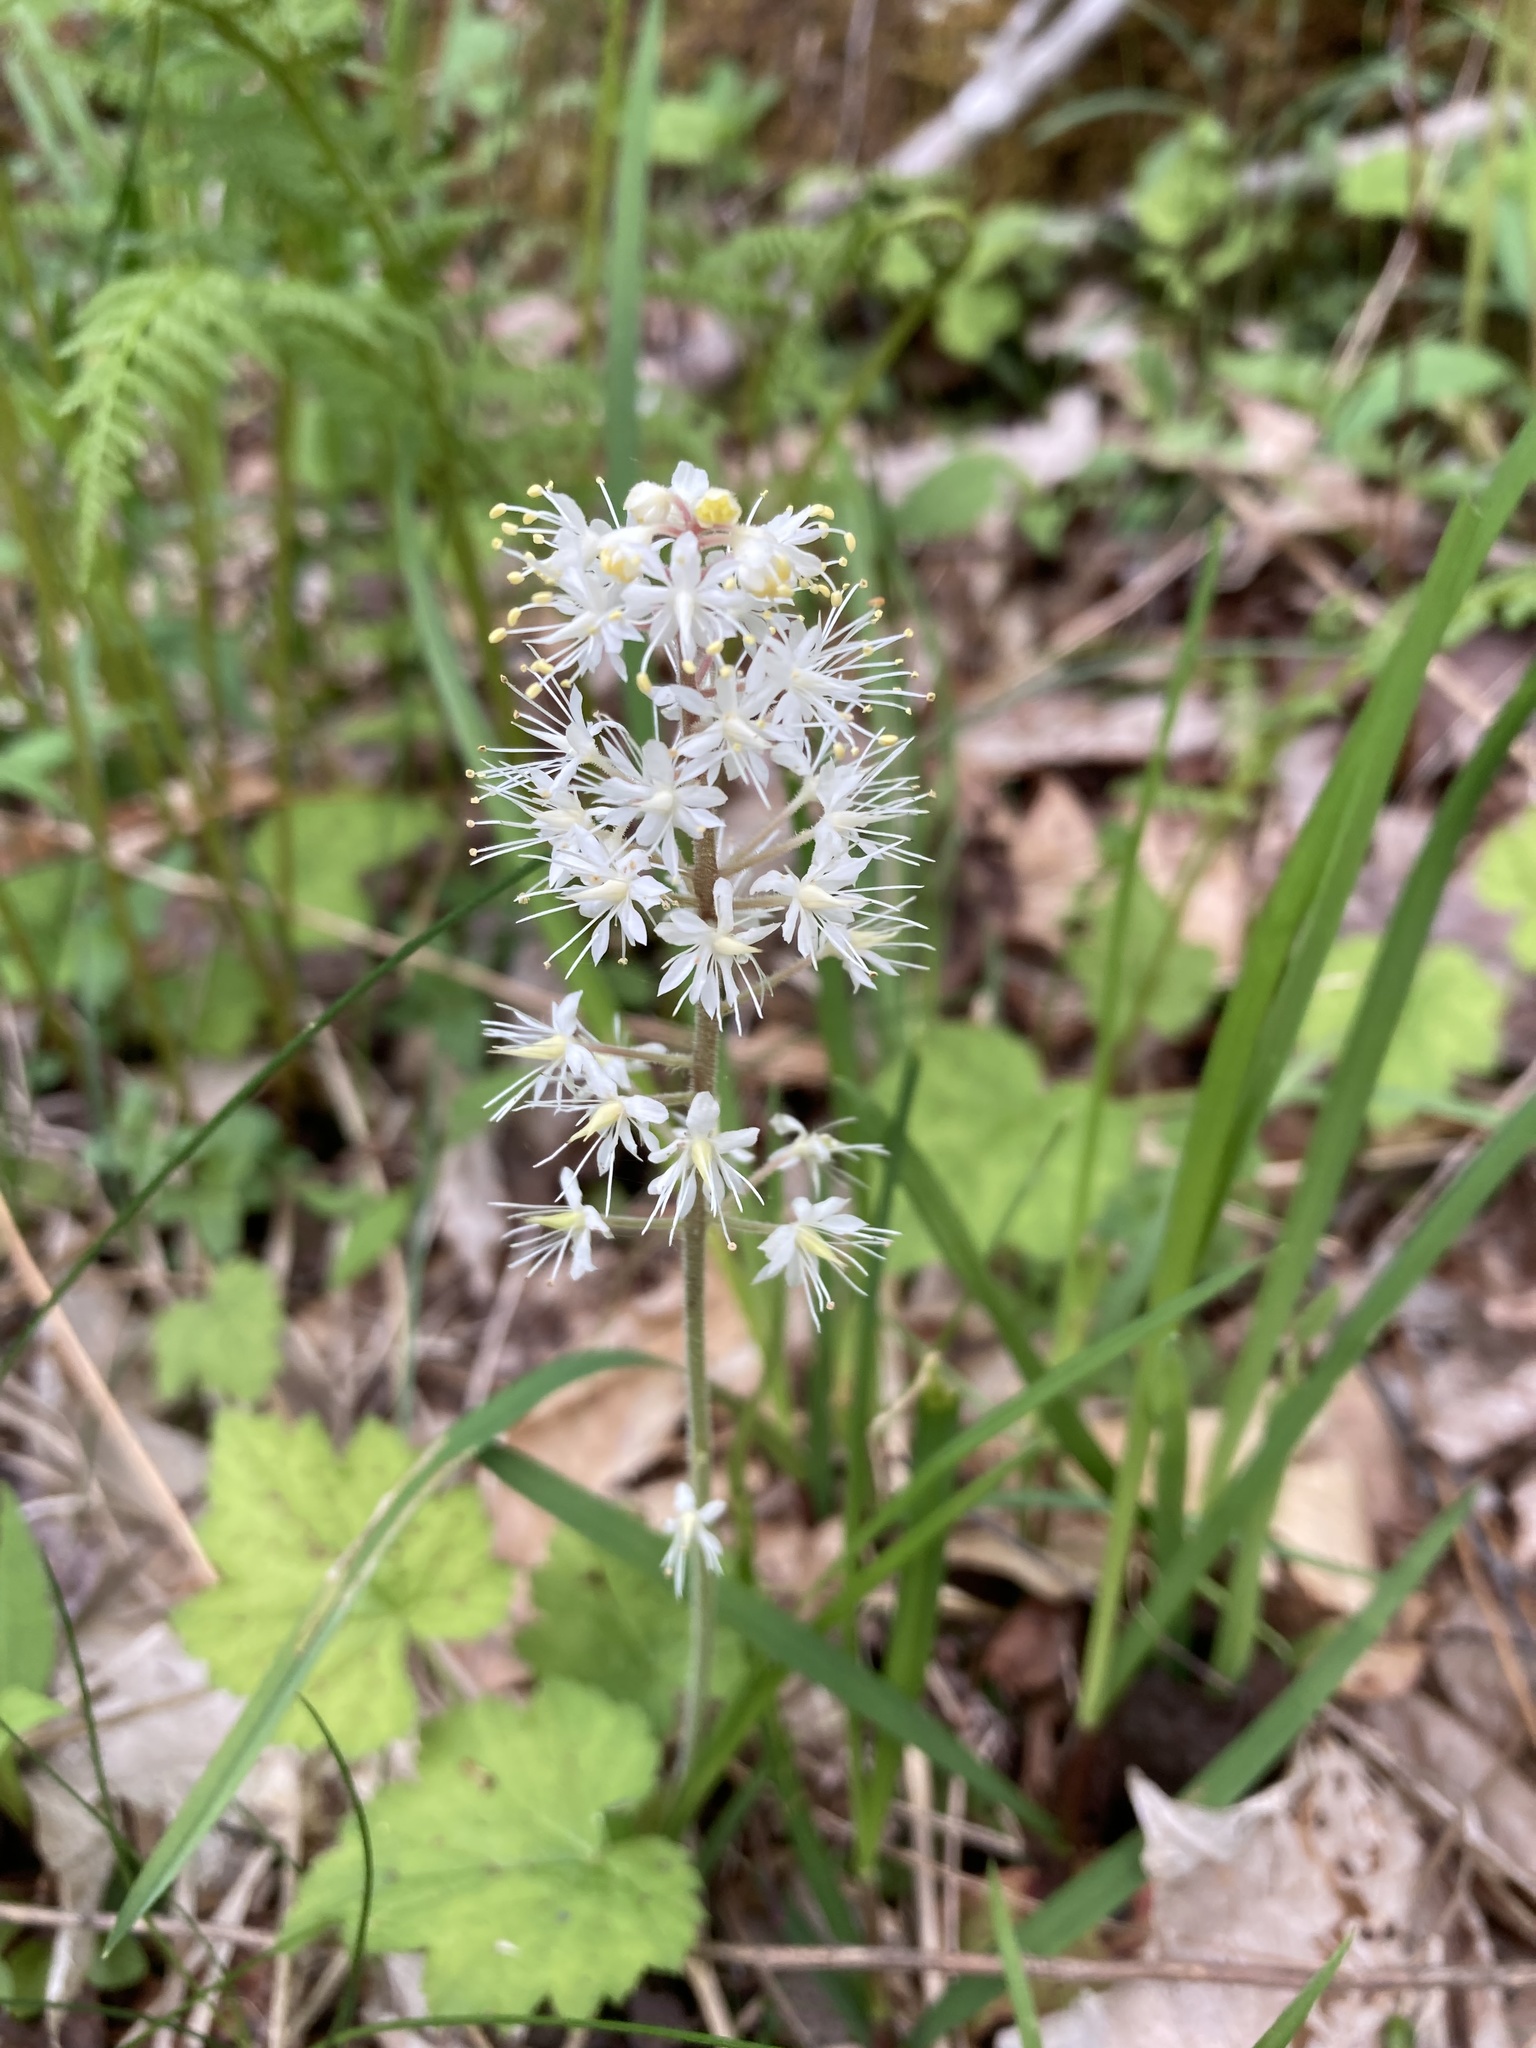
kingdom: Plantae
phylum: Tracheophyta
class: Magnoliopsida
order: Saxifragales
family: Saxifragaceae
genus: Tiarella
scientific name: Tiarella stolonifera
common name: Stoloniferous foamflower
